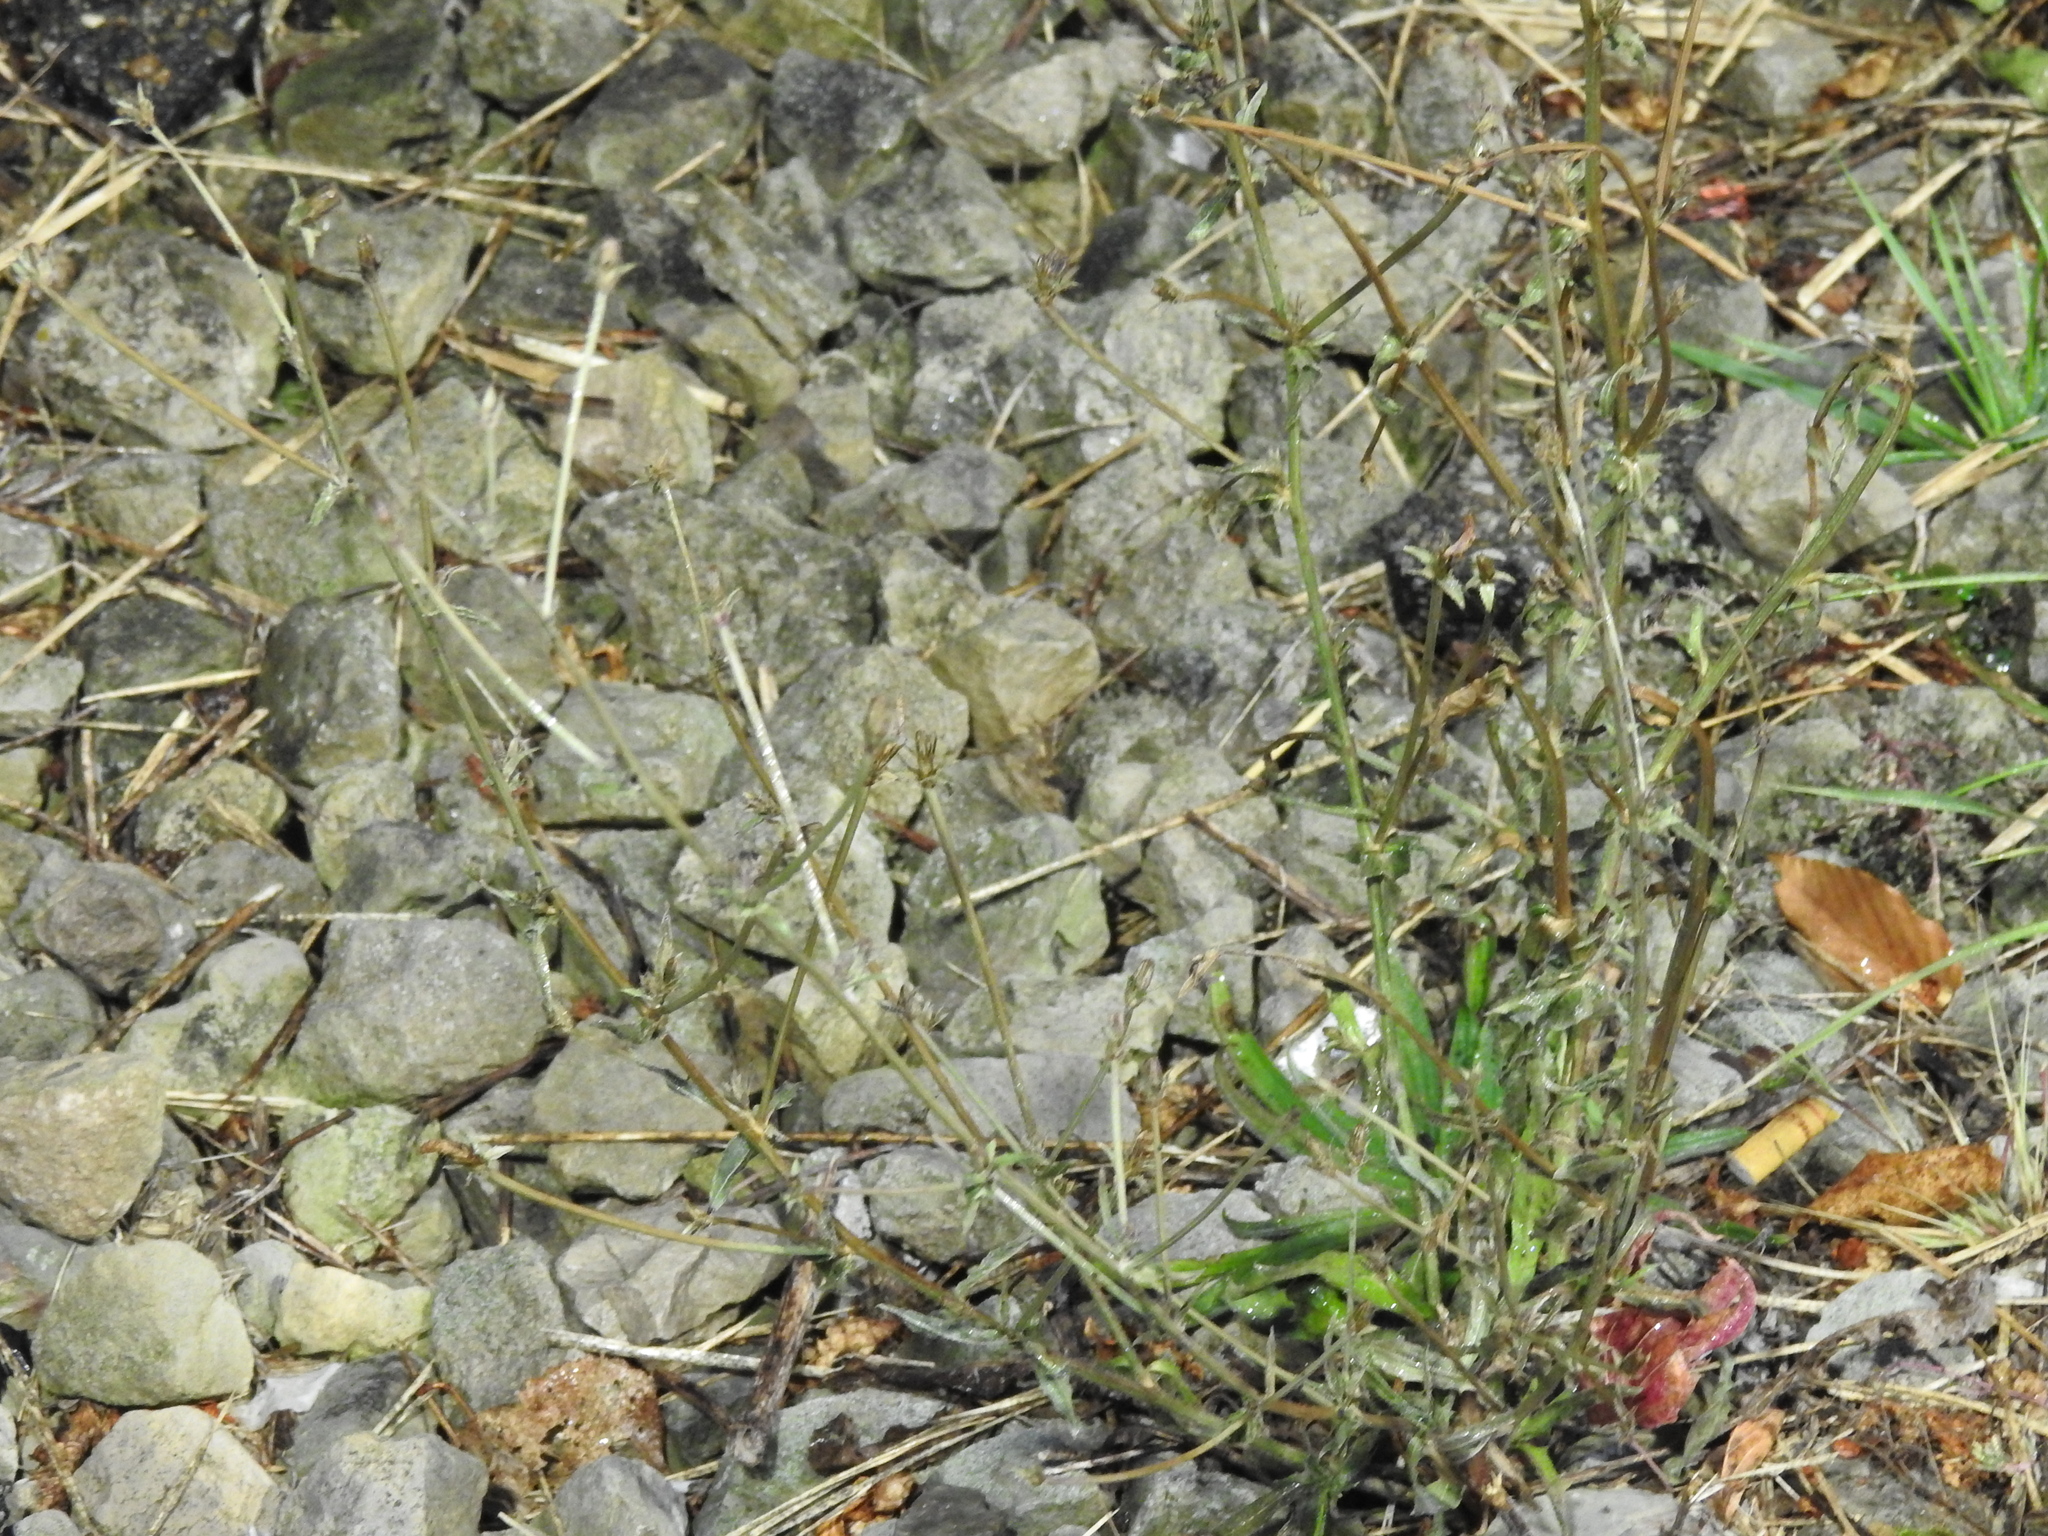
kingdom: Plantae
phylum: Tracheophyta
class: Magnoliopsida
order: Asterales
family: Asteraceae
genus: Cichorium
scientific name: Cichorium intybus
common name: Chicory
